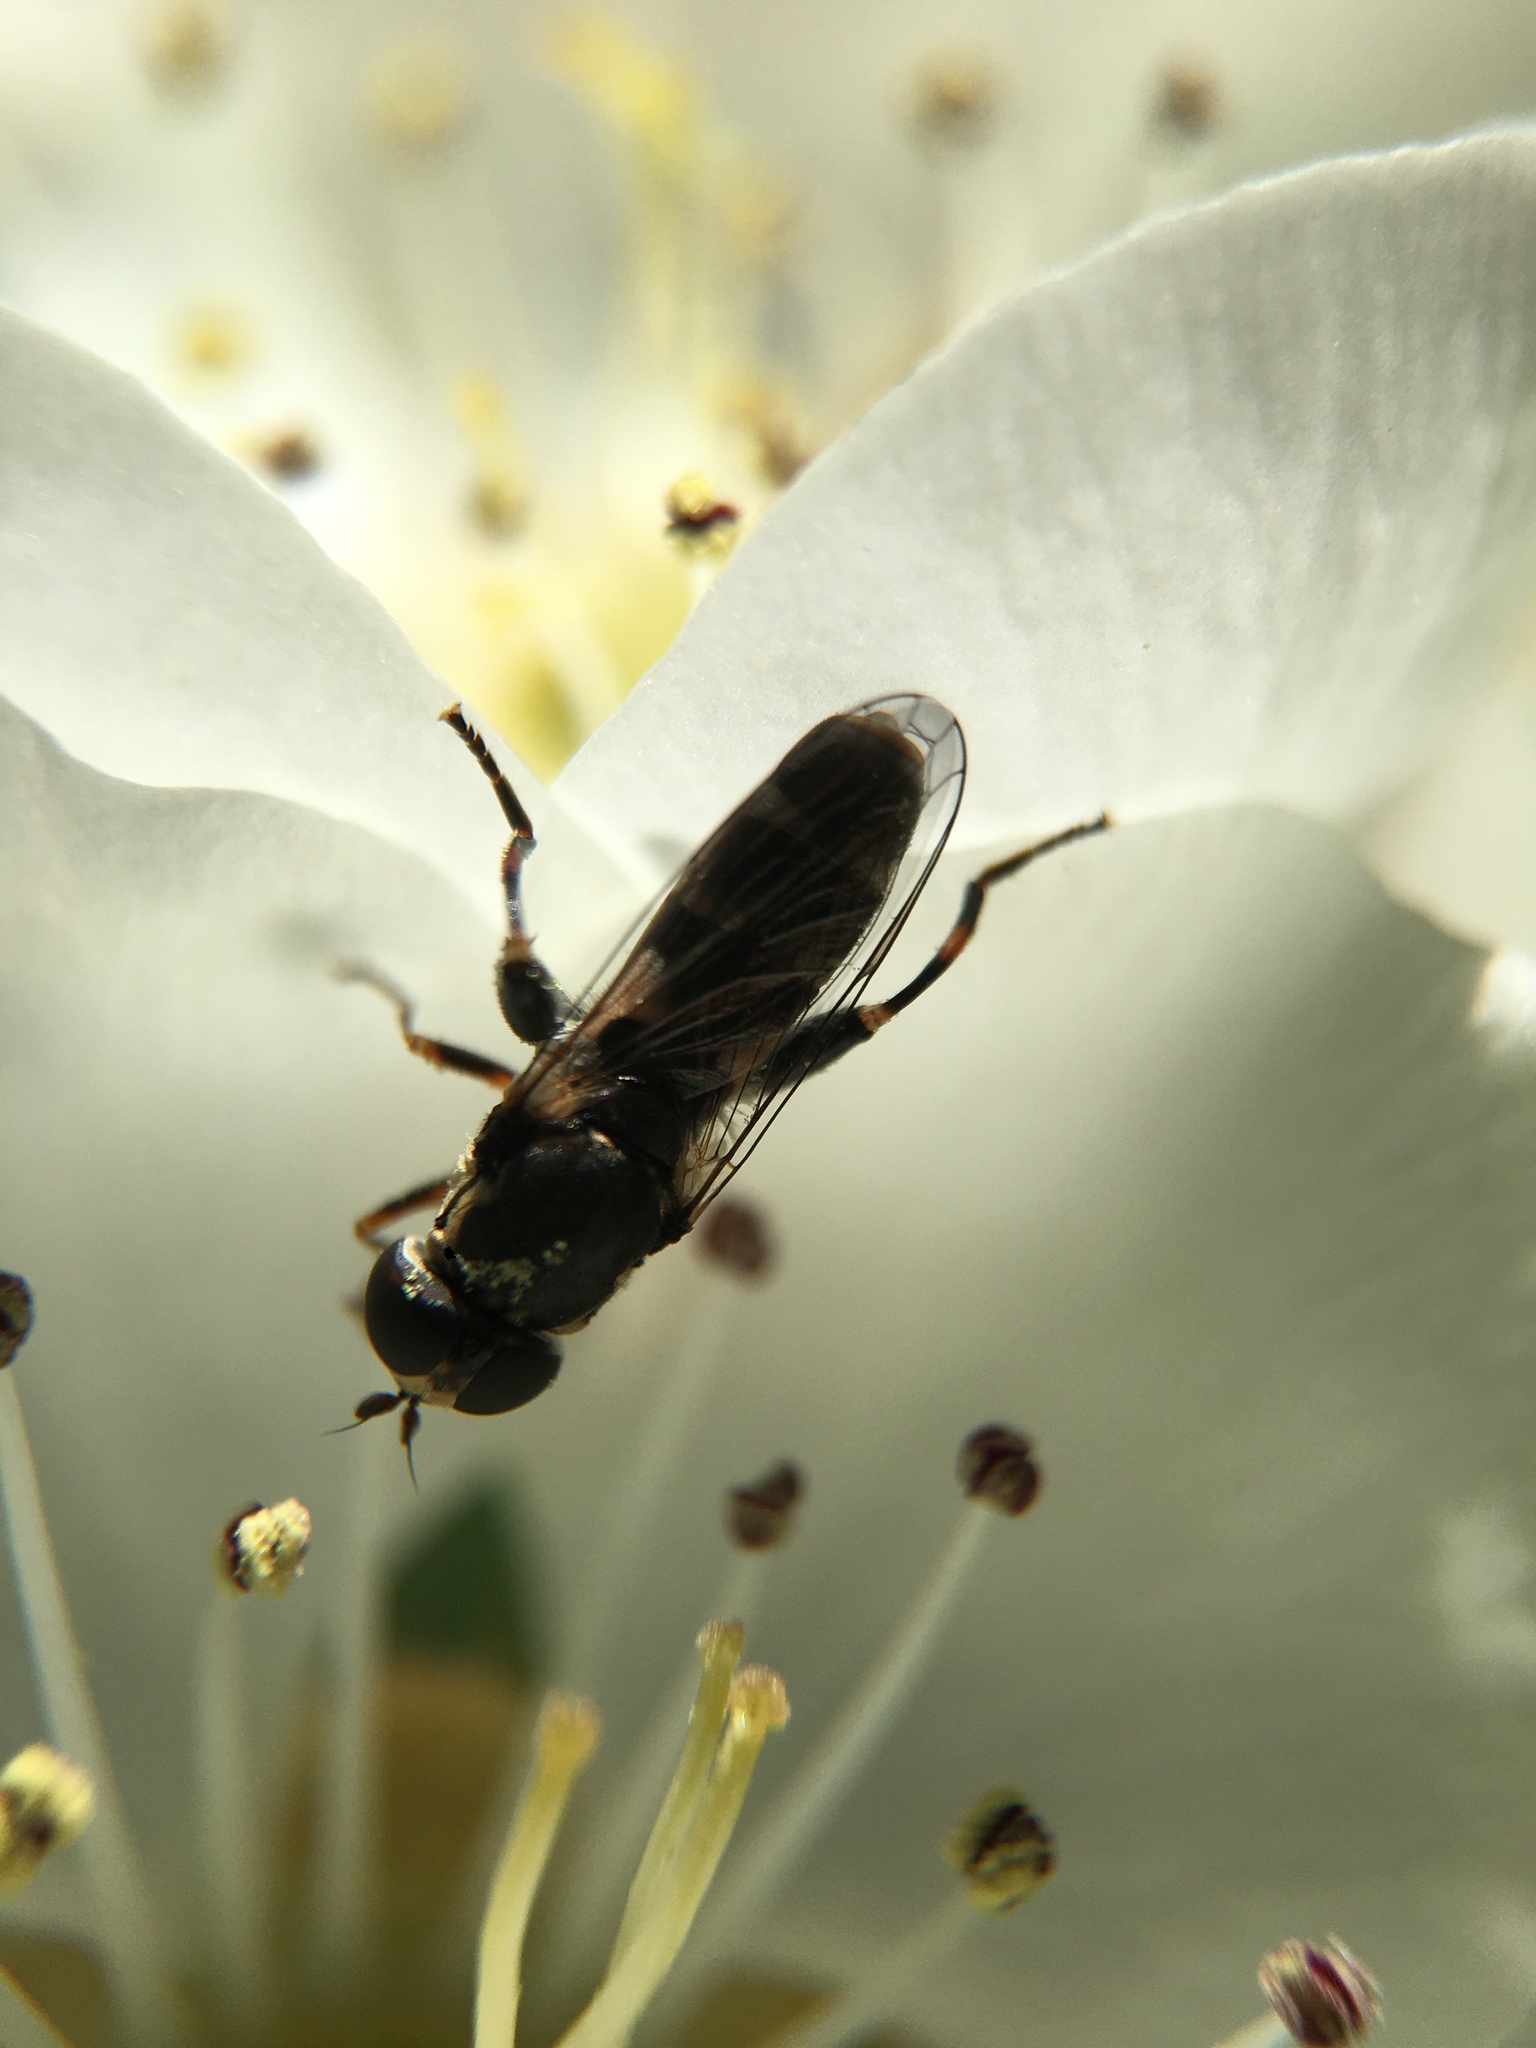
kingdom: Animalia
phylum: Arthropoda
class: Insecta
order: Diptera
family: Syrphidae
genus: Syritta
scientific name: Syritta pipiens
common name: Hover fly
